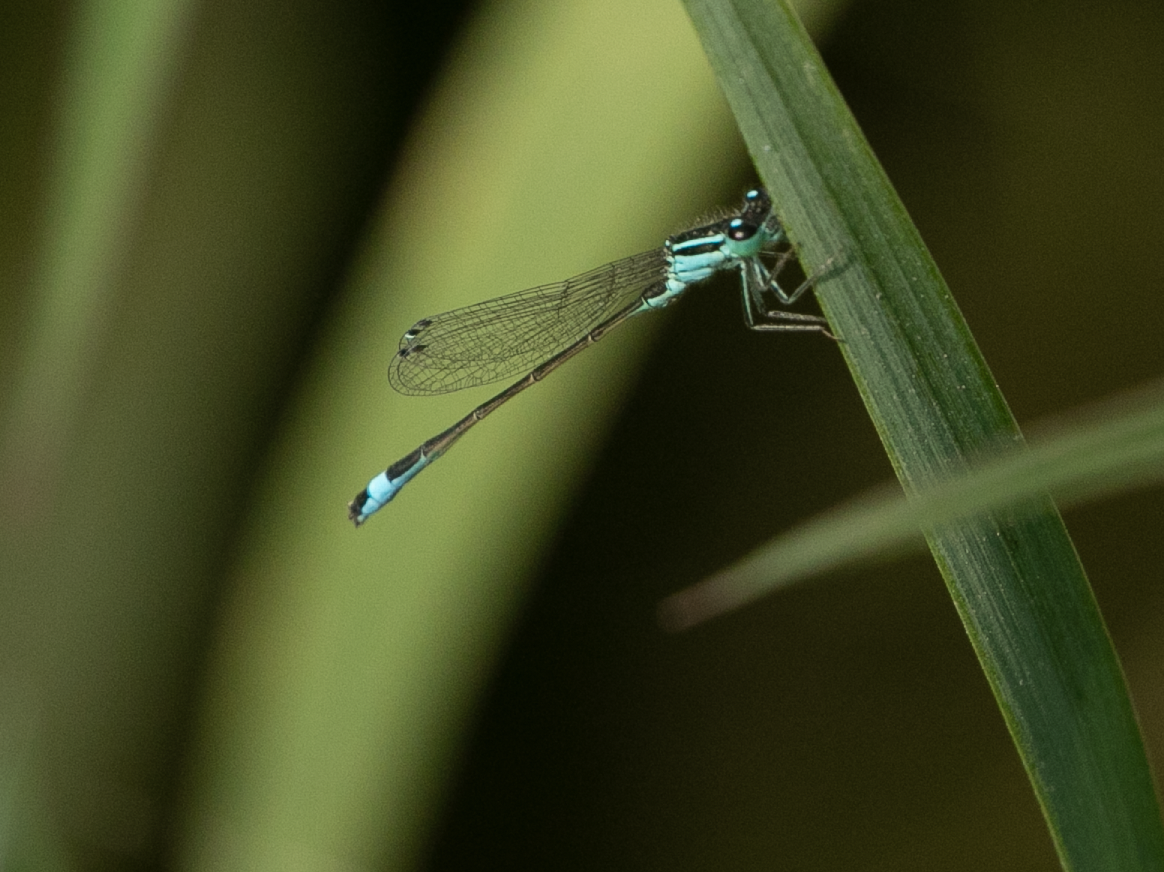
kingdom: Animalia
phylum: Arthropoda
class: Insecta
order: Odonata
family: Coenagrionidae
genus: Ischnura
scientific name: Ischnura elegans
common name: Blue-tailed damselfly
